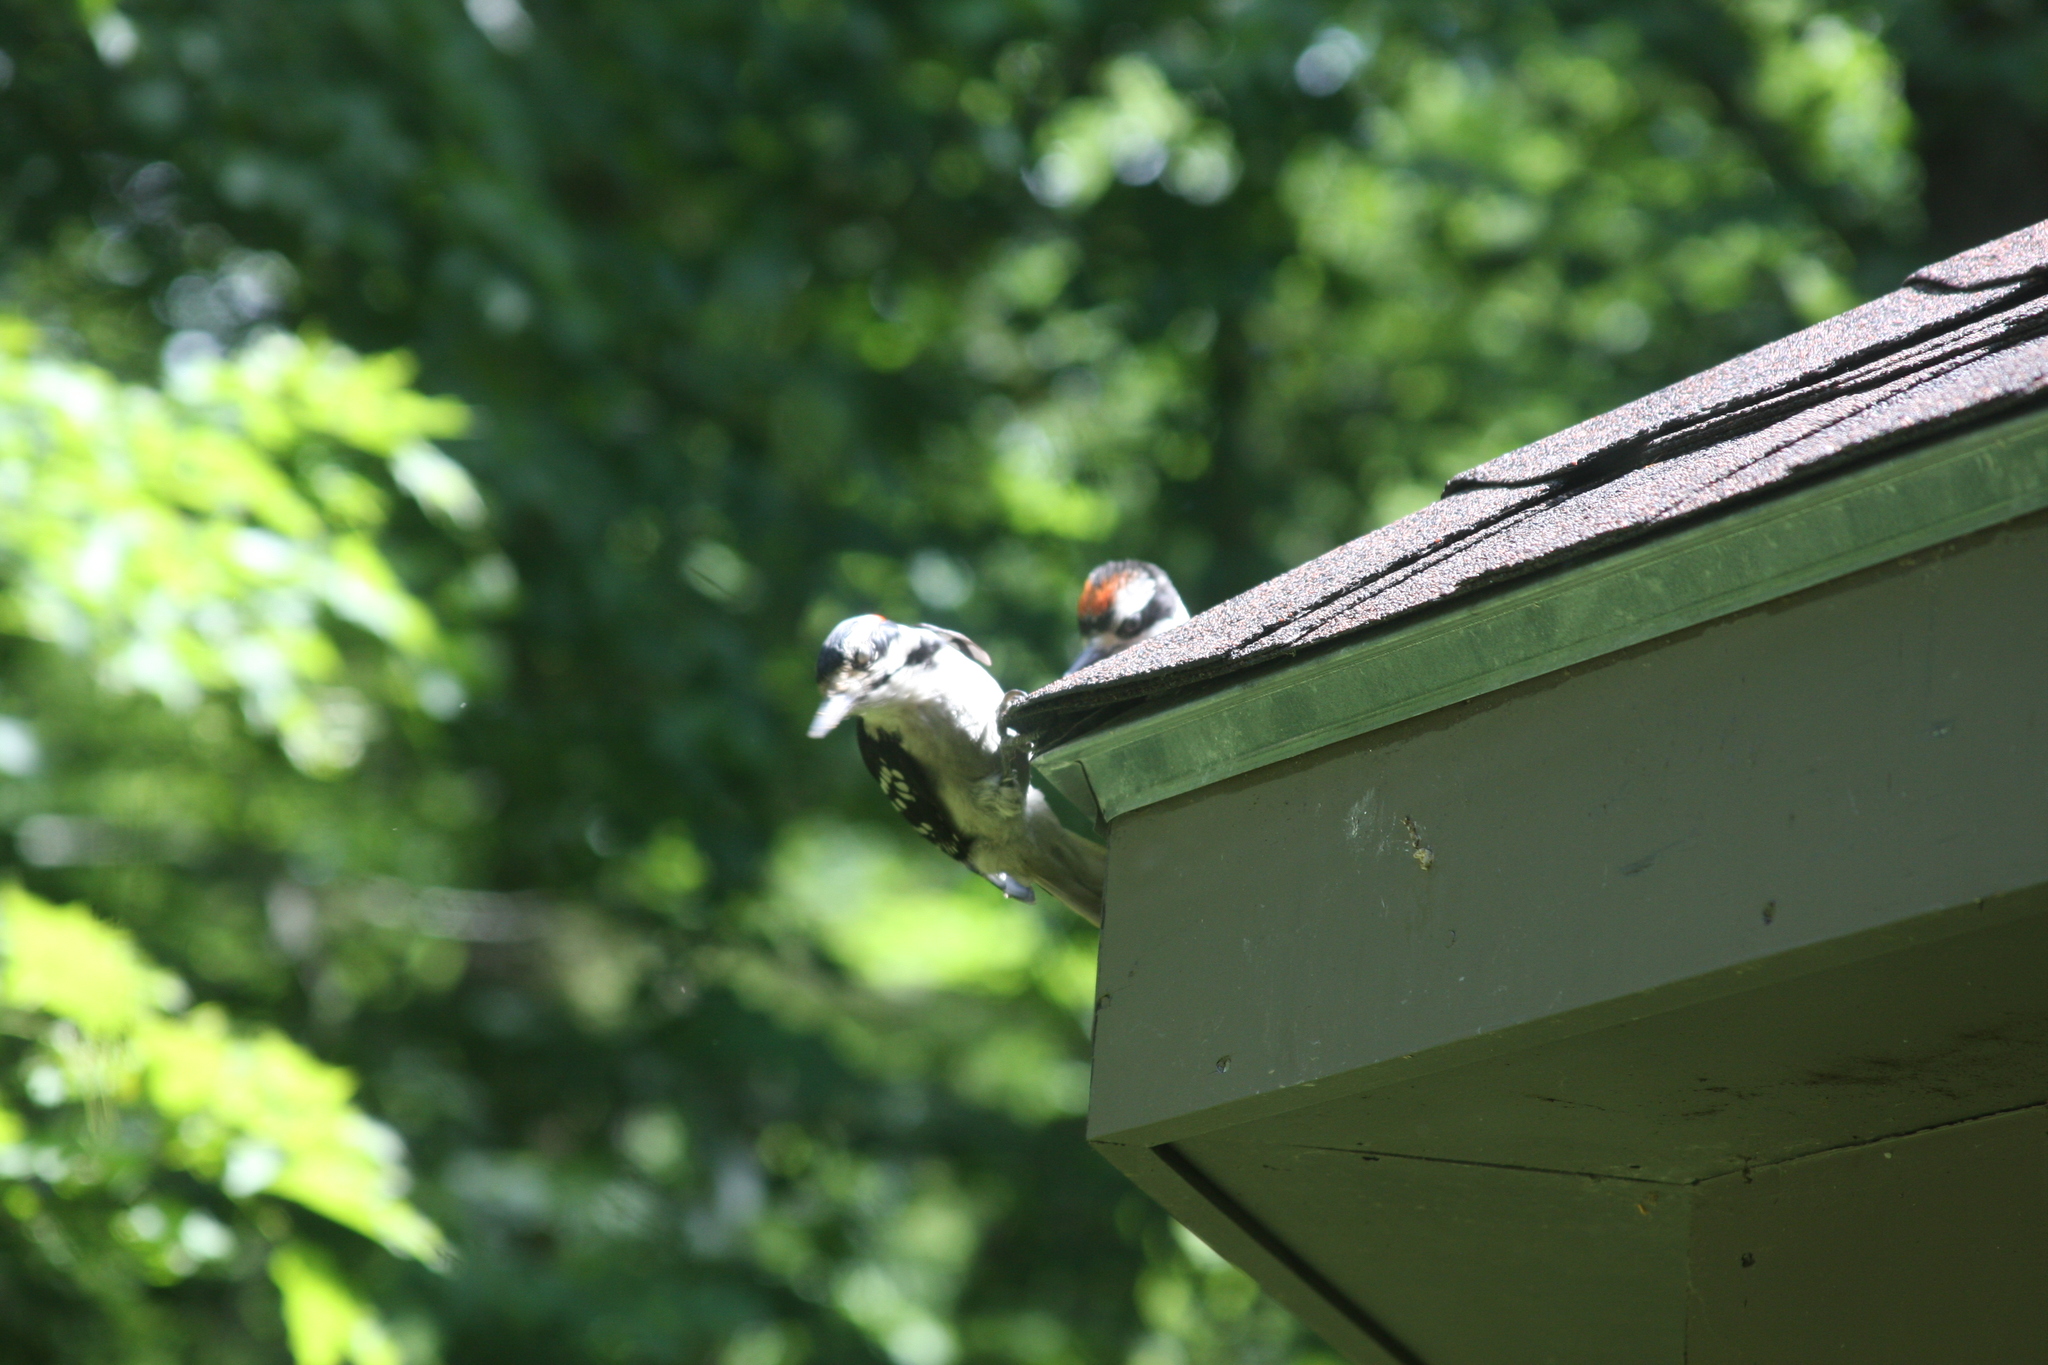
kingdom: Animalia
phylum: Chordata
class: Aves
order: Piciformes
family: Picidae
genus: Leuconotopicus
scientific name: Leuconotopicus villosus
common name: Hairy woodpecker
